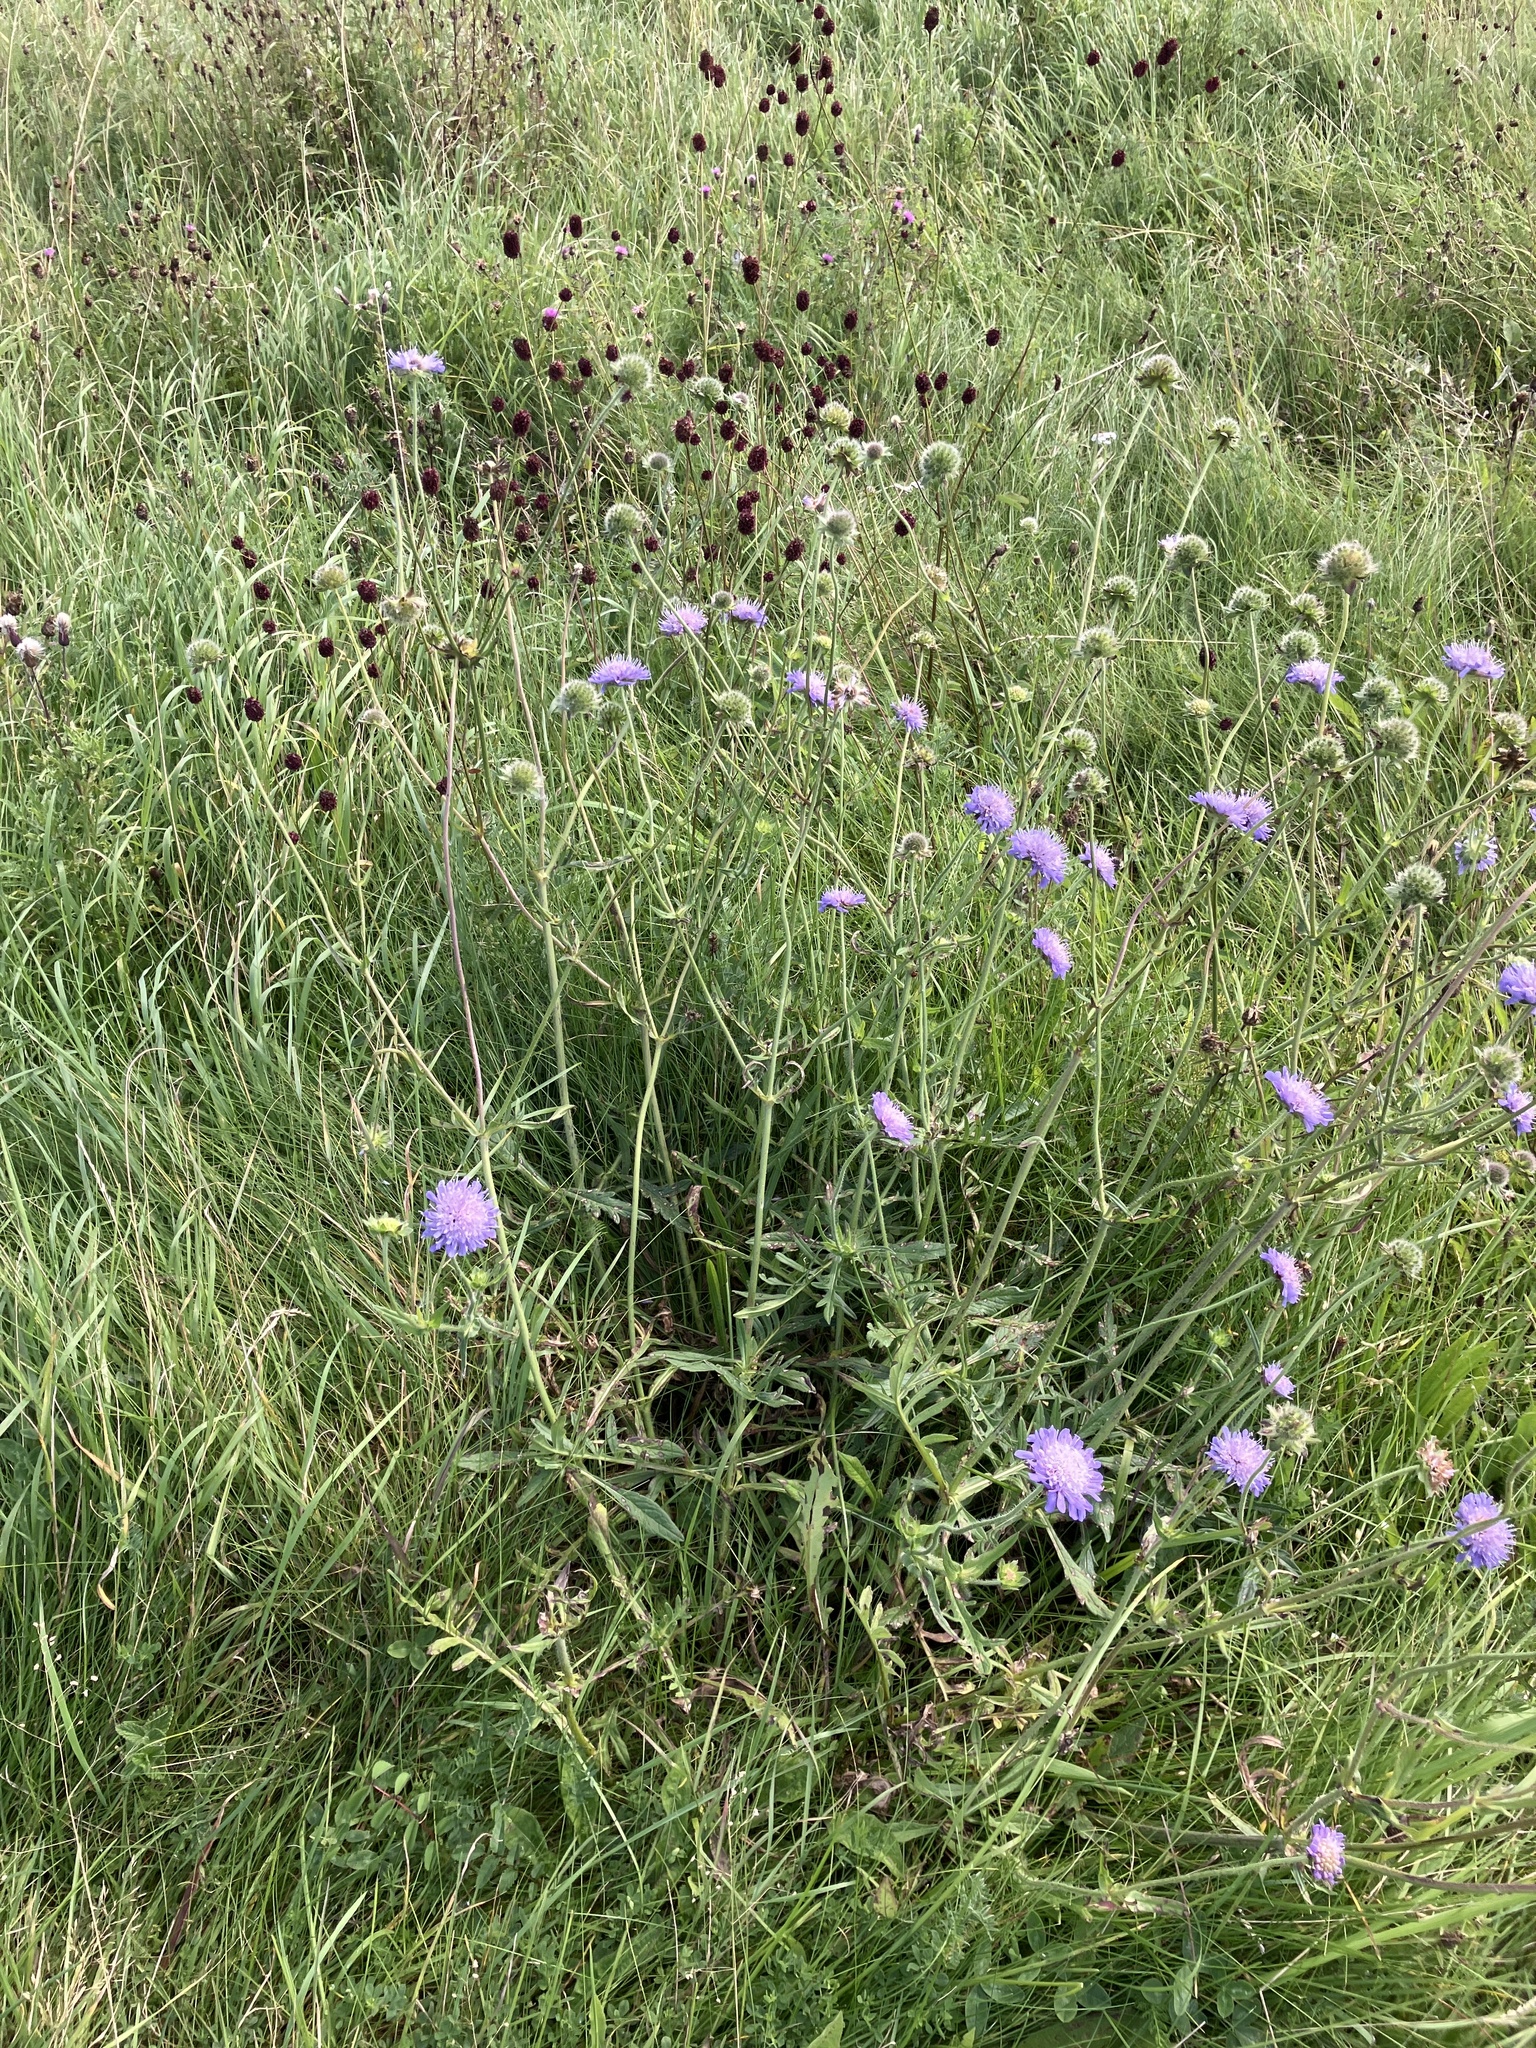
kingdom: Plantae
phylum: Tracheophyta
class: Magnoliopsida
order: Dipsacales
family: Caprifoliaceae
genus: Knautia
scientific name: Knautia arvensis
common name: Field scabiosa
